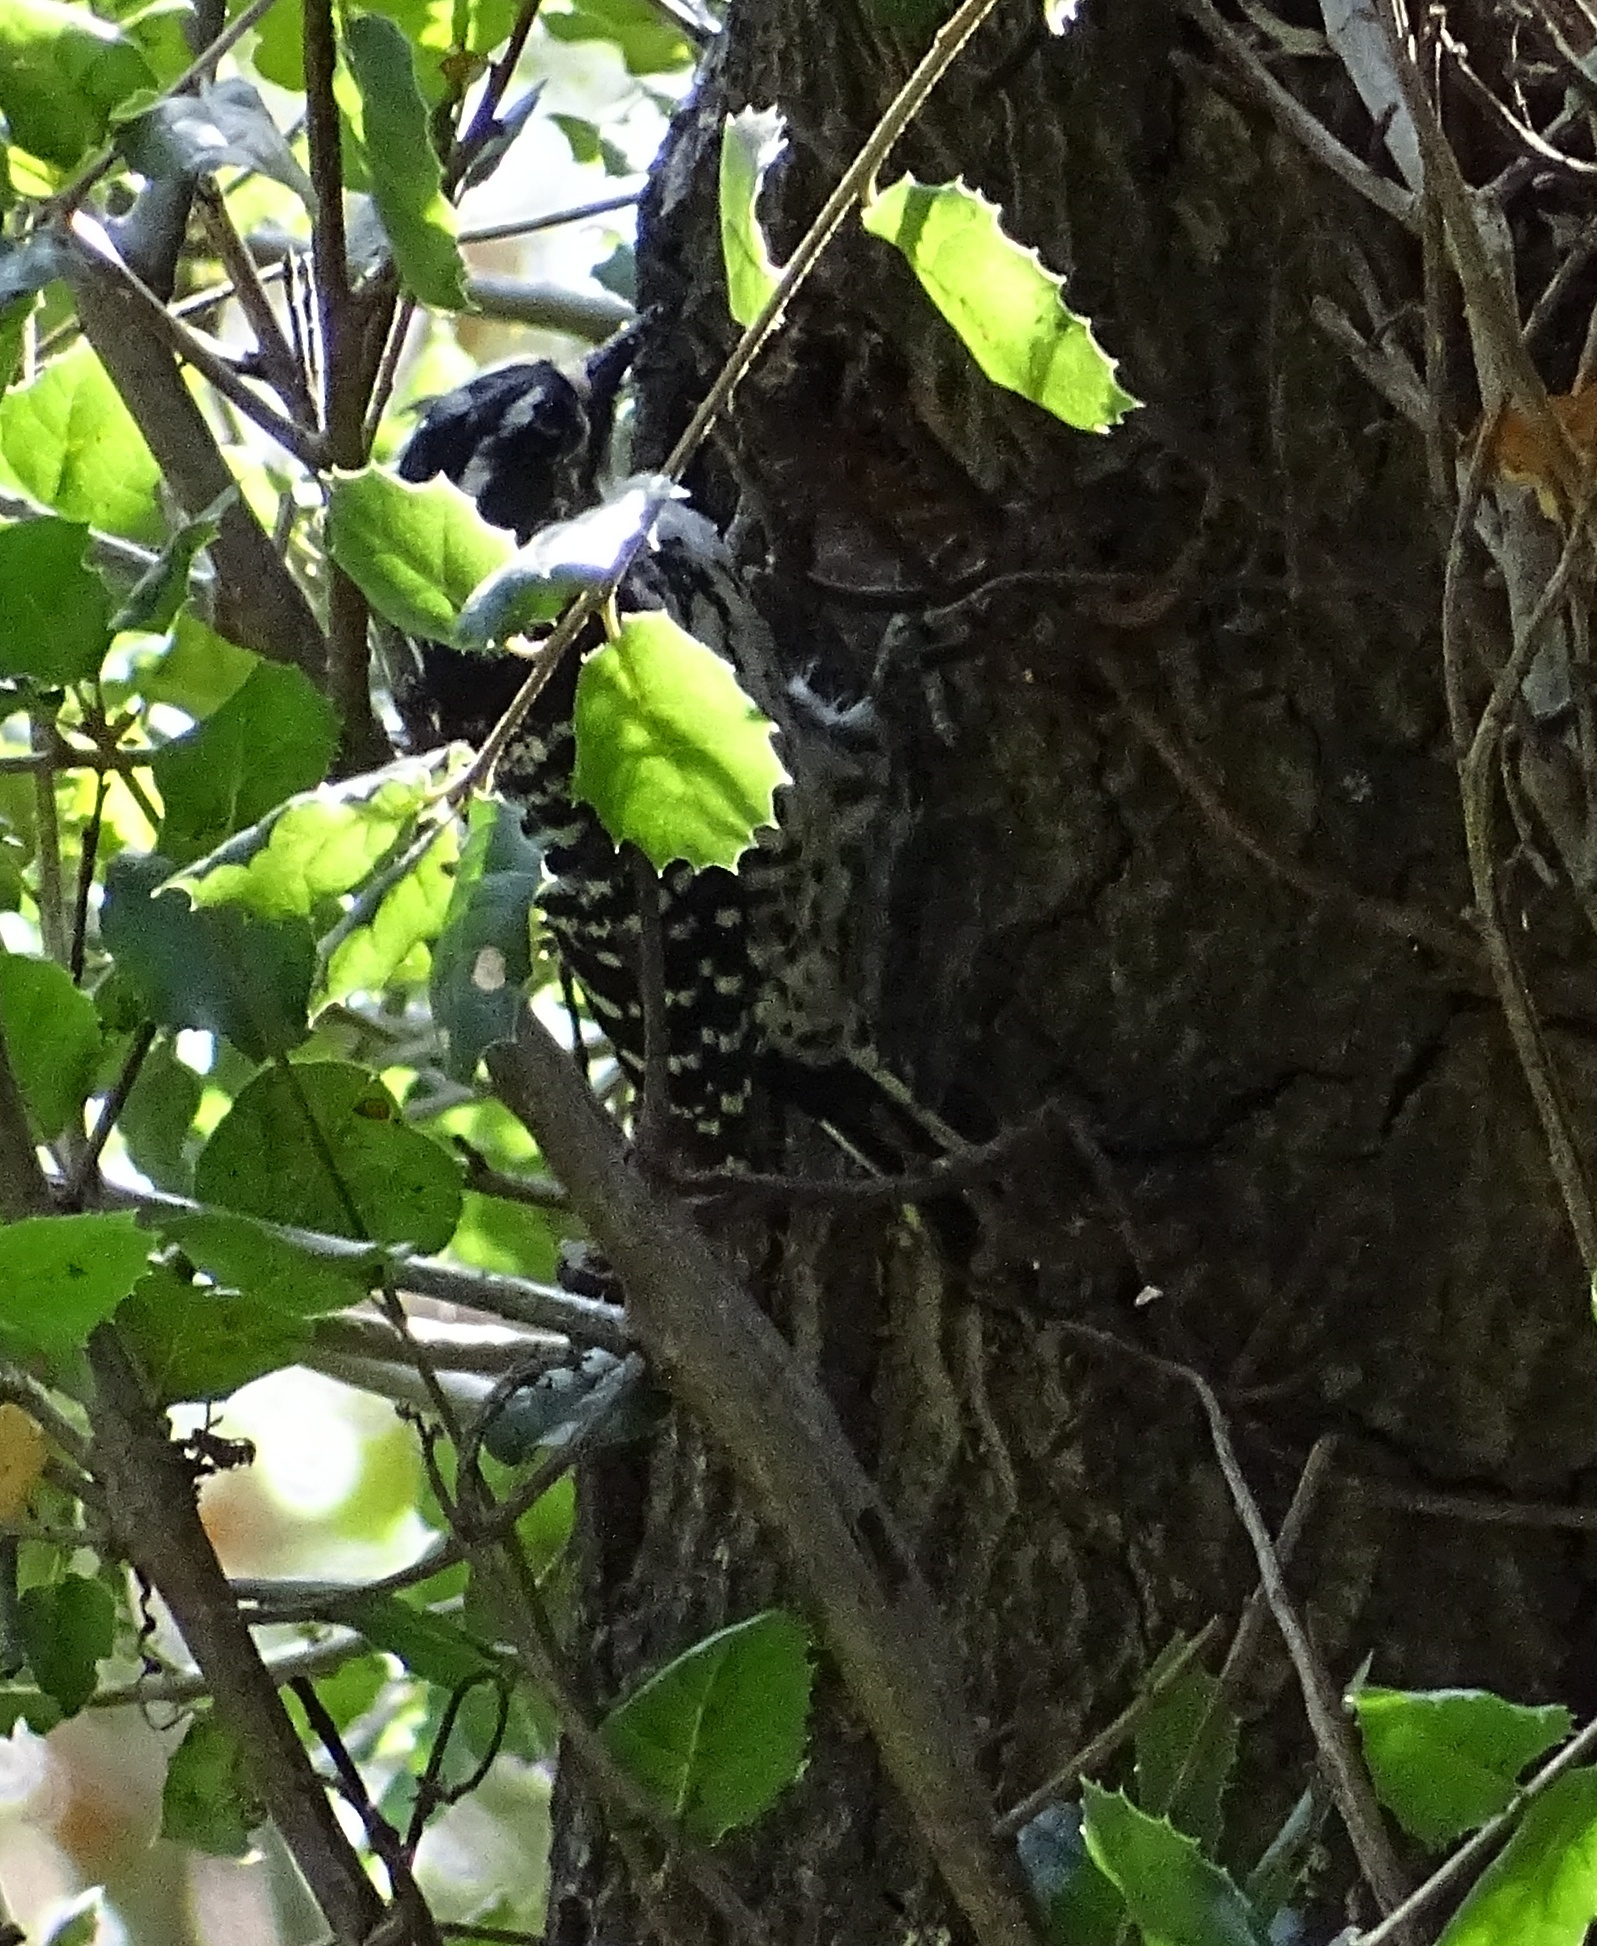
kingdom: Animalia
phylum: Chordata
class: Aves
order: Piciformes
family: Picidae
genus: Dryobates
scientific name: Dryobates nuttallii
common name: Nuttall's woodpecker
